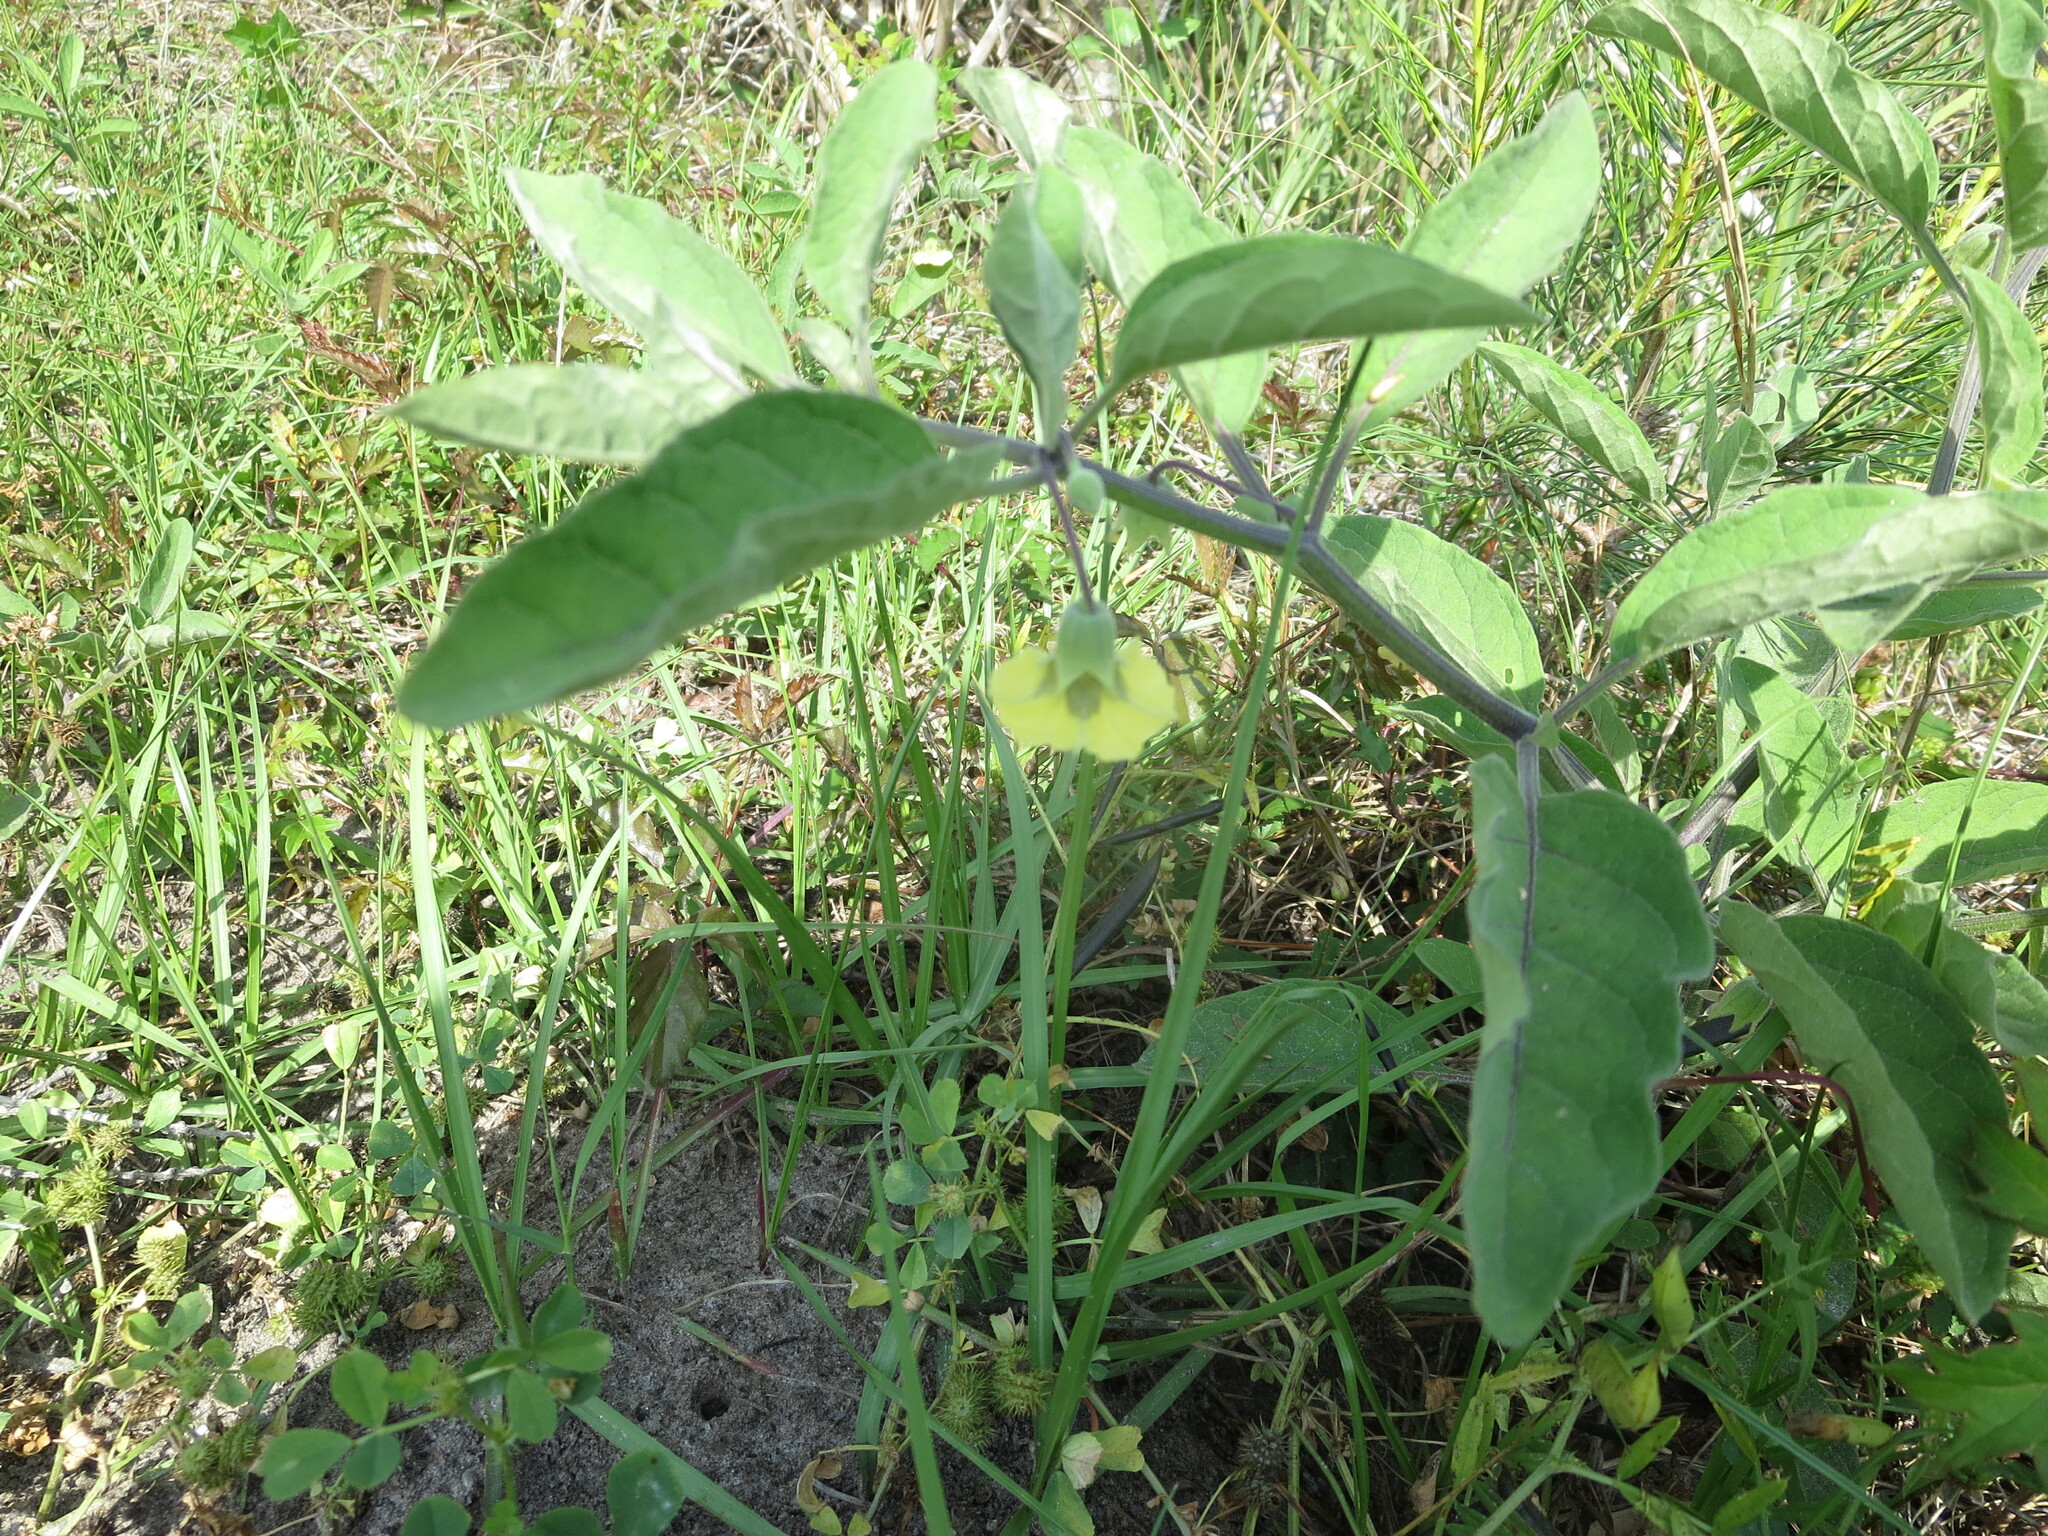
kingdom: Plantae
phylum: Tracheophyta
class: Magnoliopsida
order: Solanales
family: Solanaceae
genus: Physalis
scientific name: Physalis walteri
